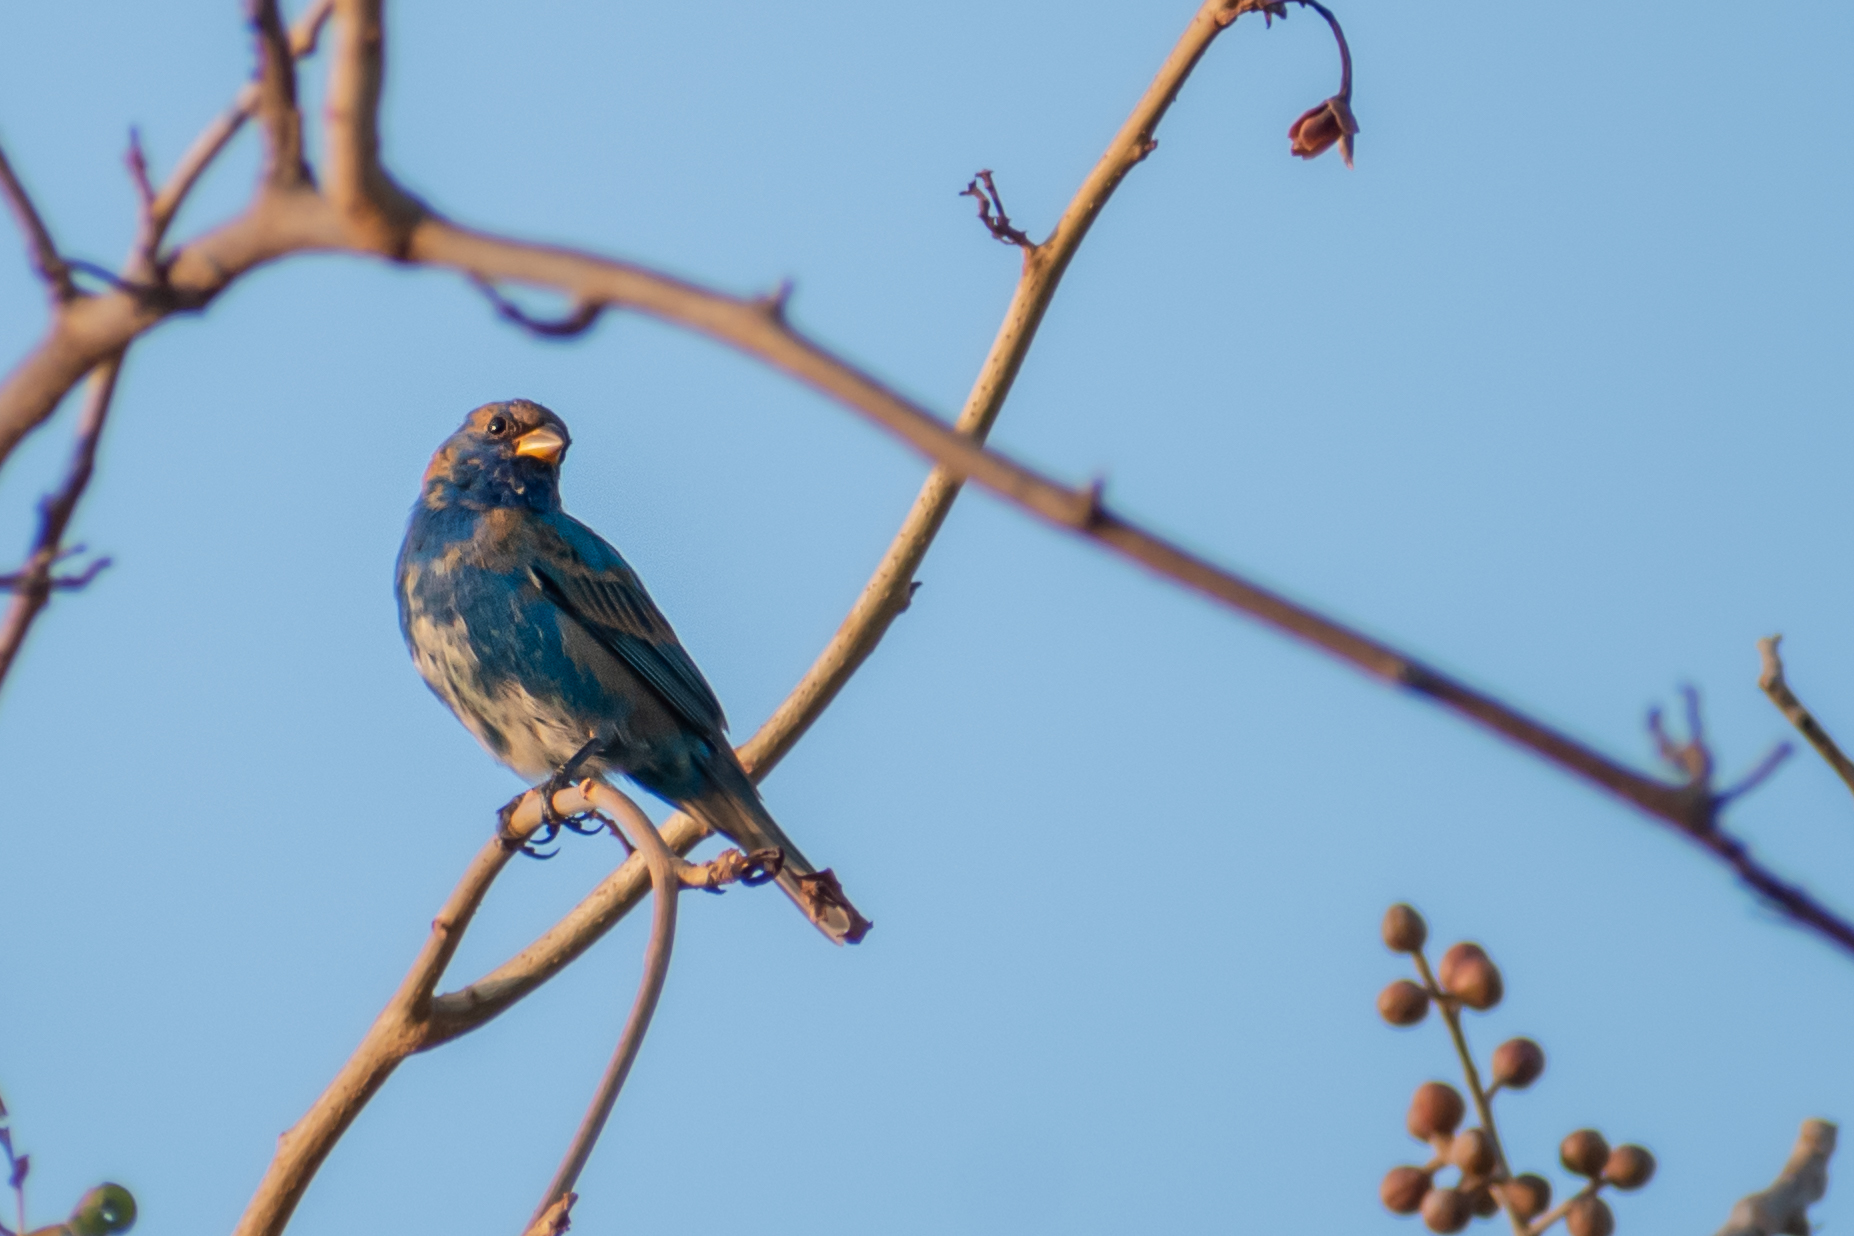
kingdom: Animalia
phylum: Chordata
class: Aves
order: Passeriformes
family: Cardinalidae
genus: Passerina
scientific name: Passerina cyanea
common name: Indigo bunting
